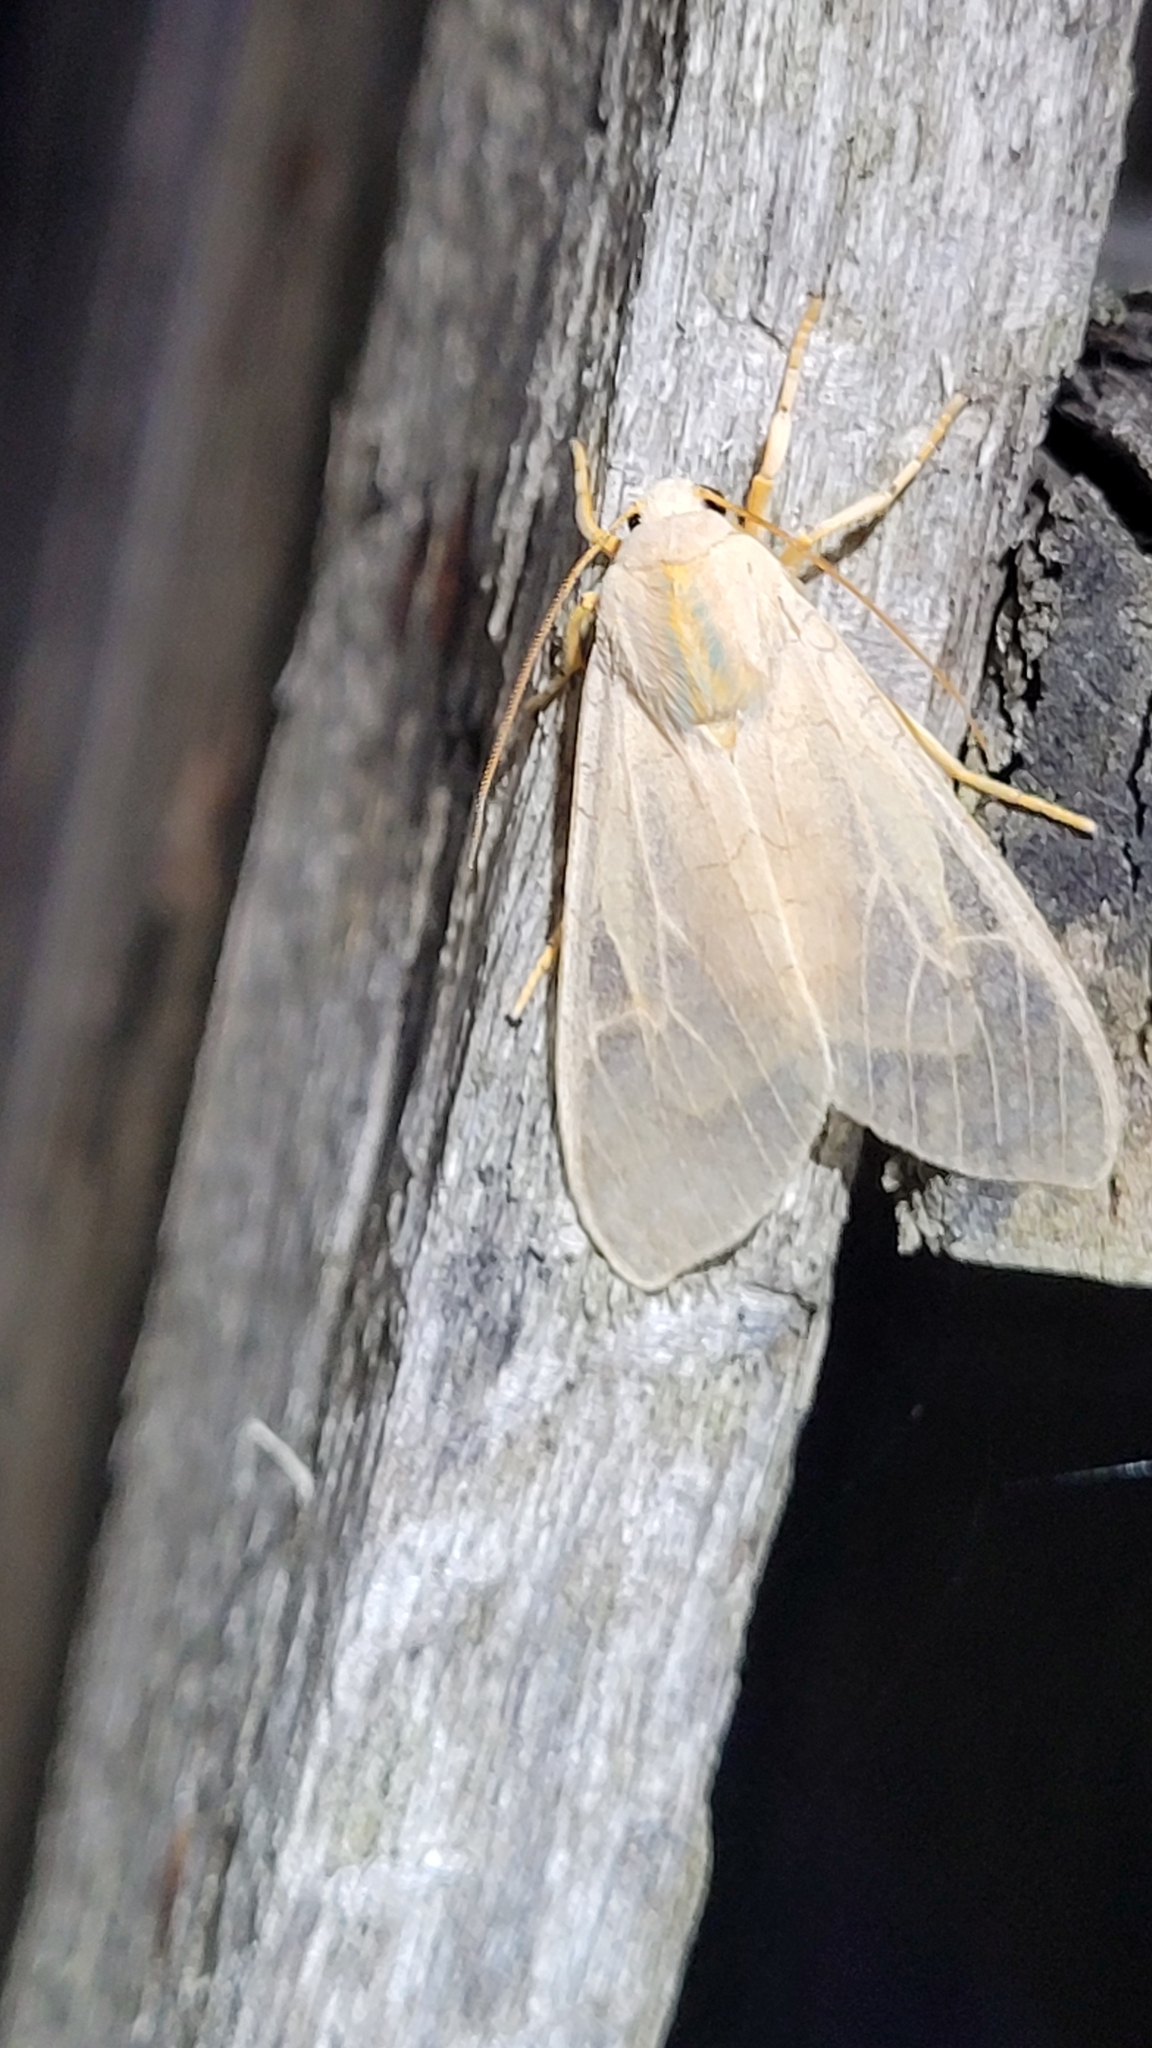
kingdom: Animalia
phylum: Arthropoda
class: Insecta
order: Lepidoptera
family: Erebidae
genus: Halysidota
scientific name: Halysidota tessellaris
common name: Banded tussock moth
